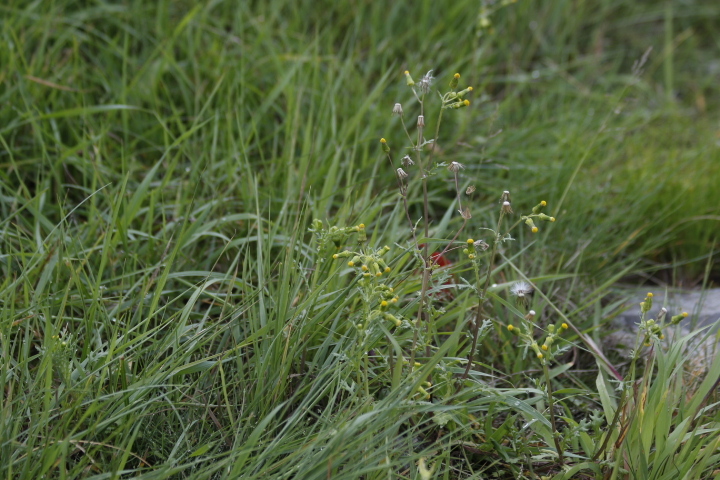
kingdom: Plantae
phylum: Tracheophyta
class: Magnoliopsida
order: Asterales
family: Asteraceae
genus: Senecio
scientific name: Senecio vulgaris
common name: Old-man-in-the-spring
